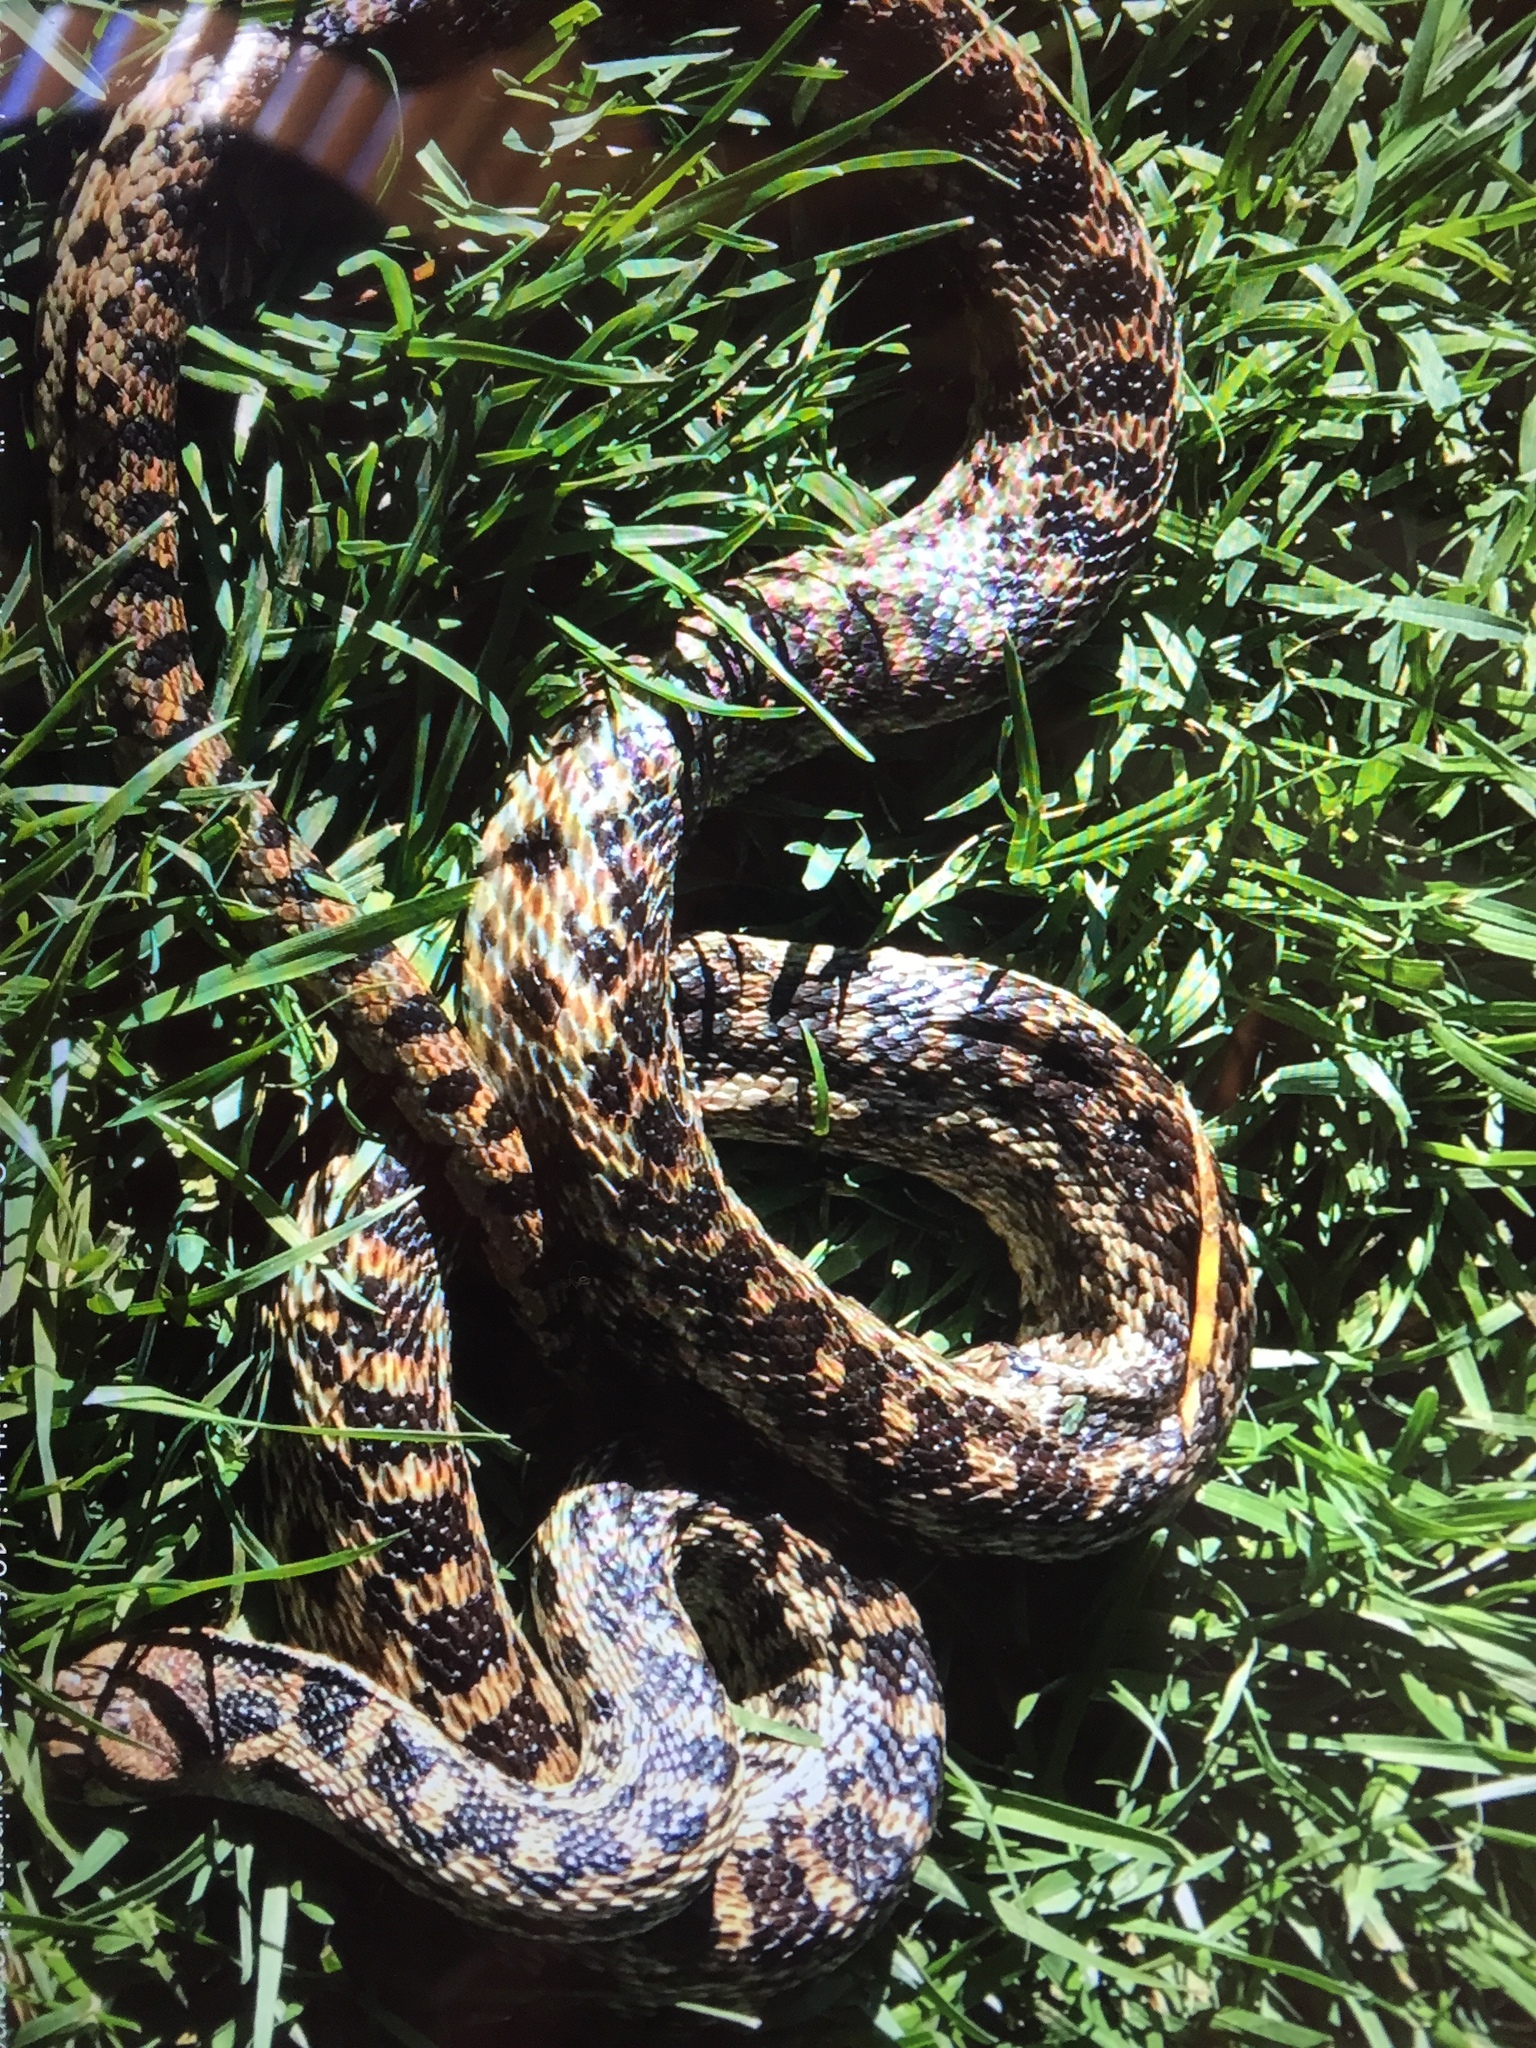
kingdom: Animalia
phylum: Chordata
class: Squamata
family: Colubridae
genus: Pituophis
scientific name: Pituophis catenifer
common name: Gopher snake
